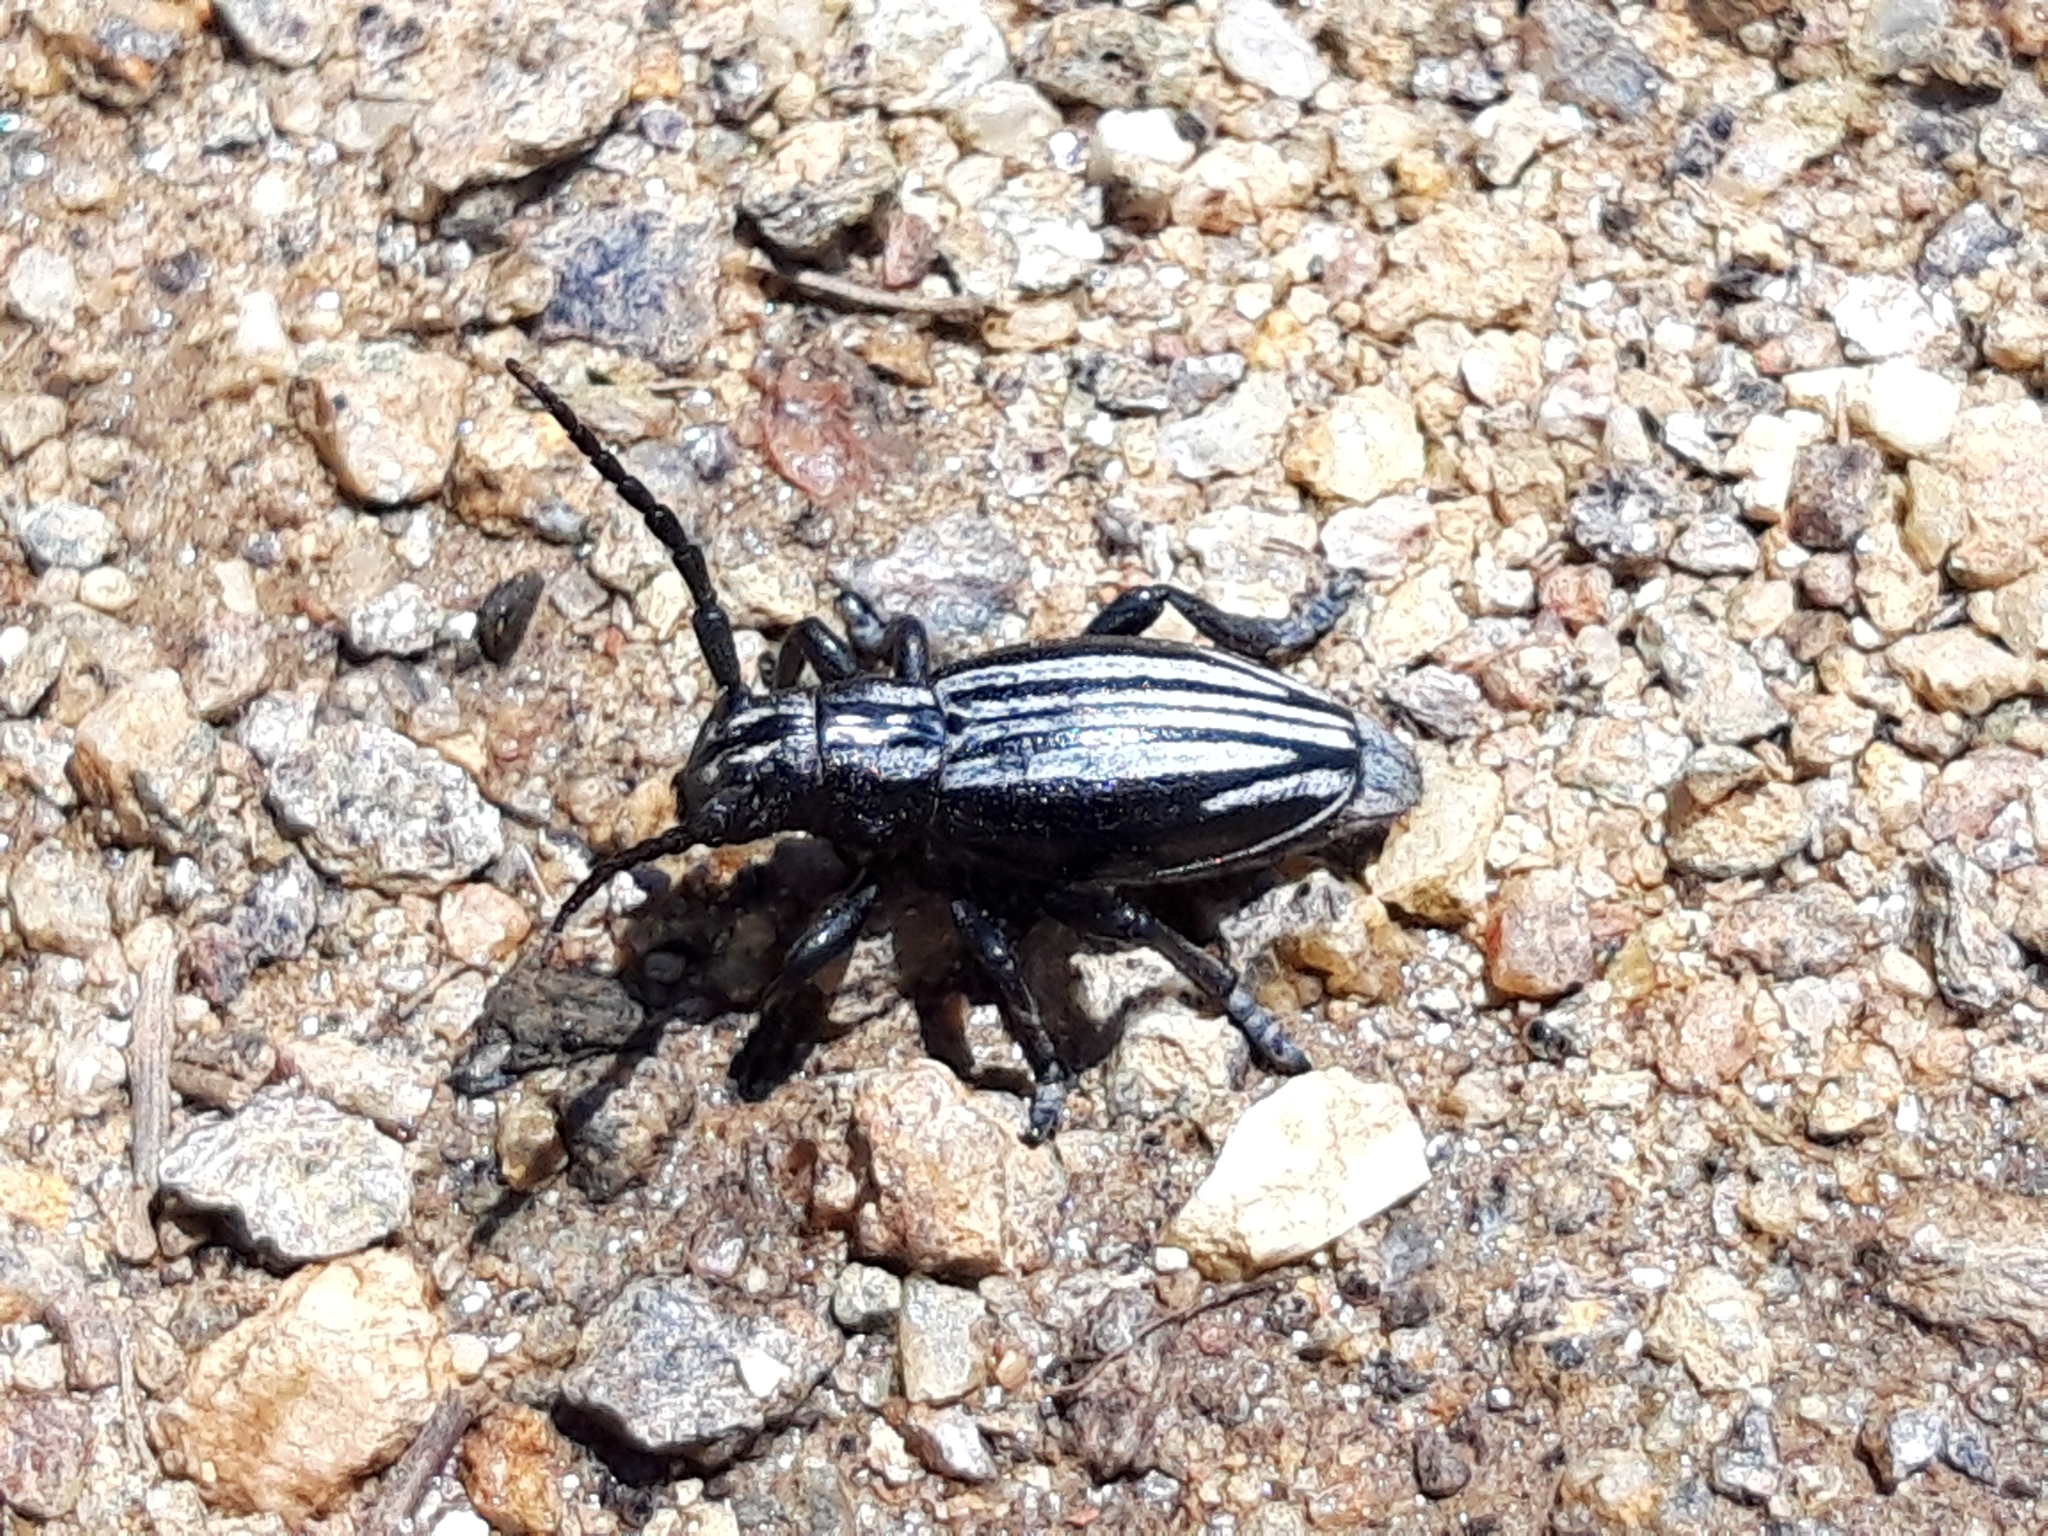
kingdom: Animalia
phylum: Arthropoda
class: Insecta
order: Coleoptera
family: Cerambycidae
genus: Iberodorcadion
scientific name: Iberodorcadion perezi
